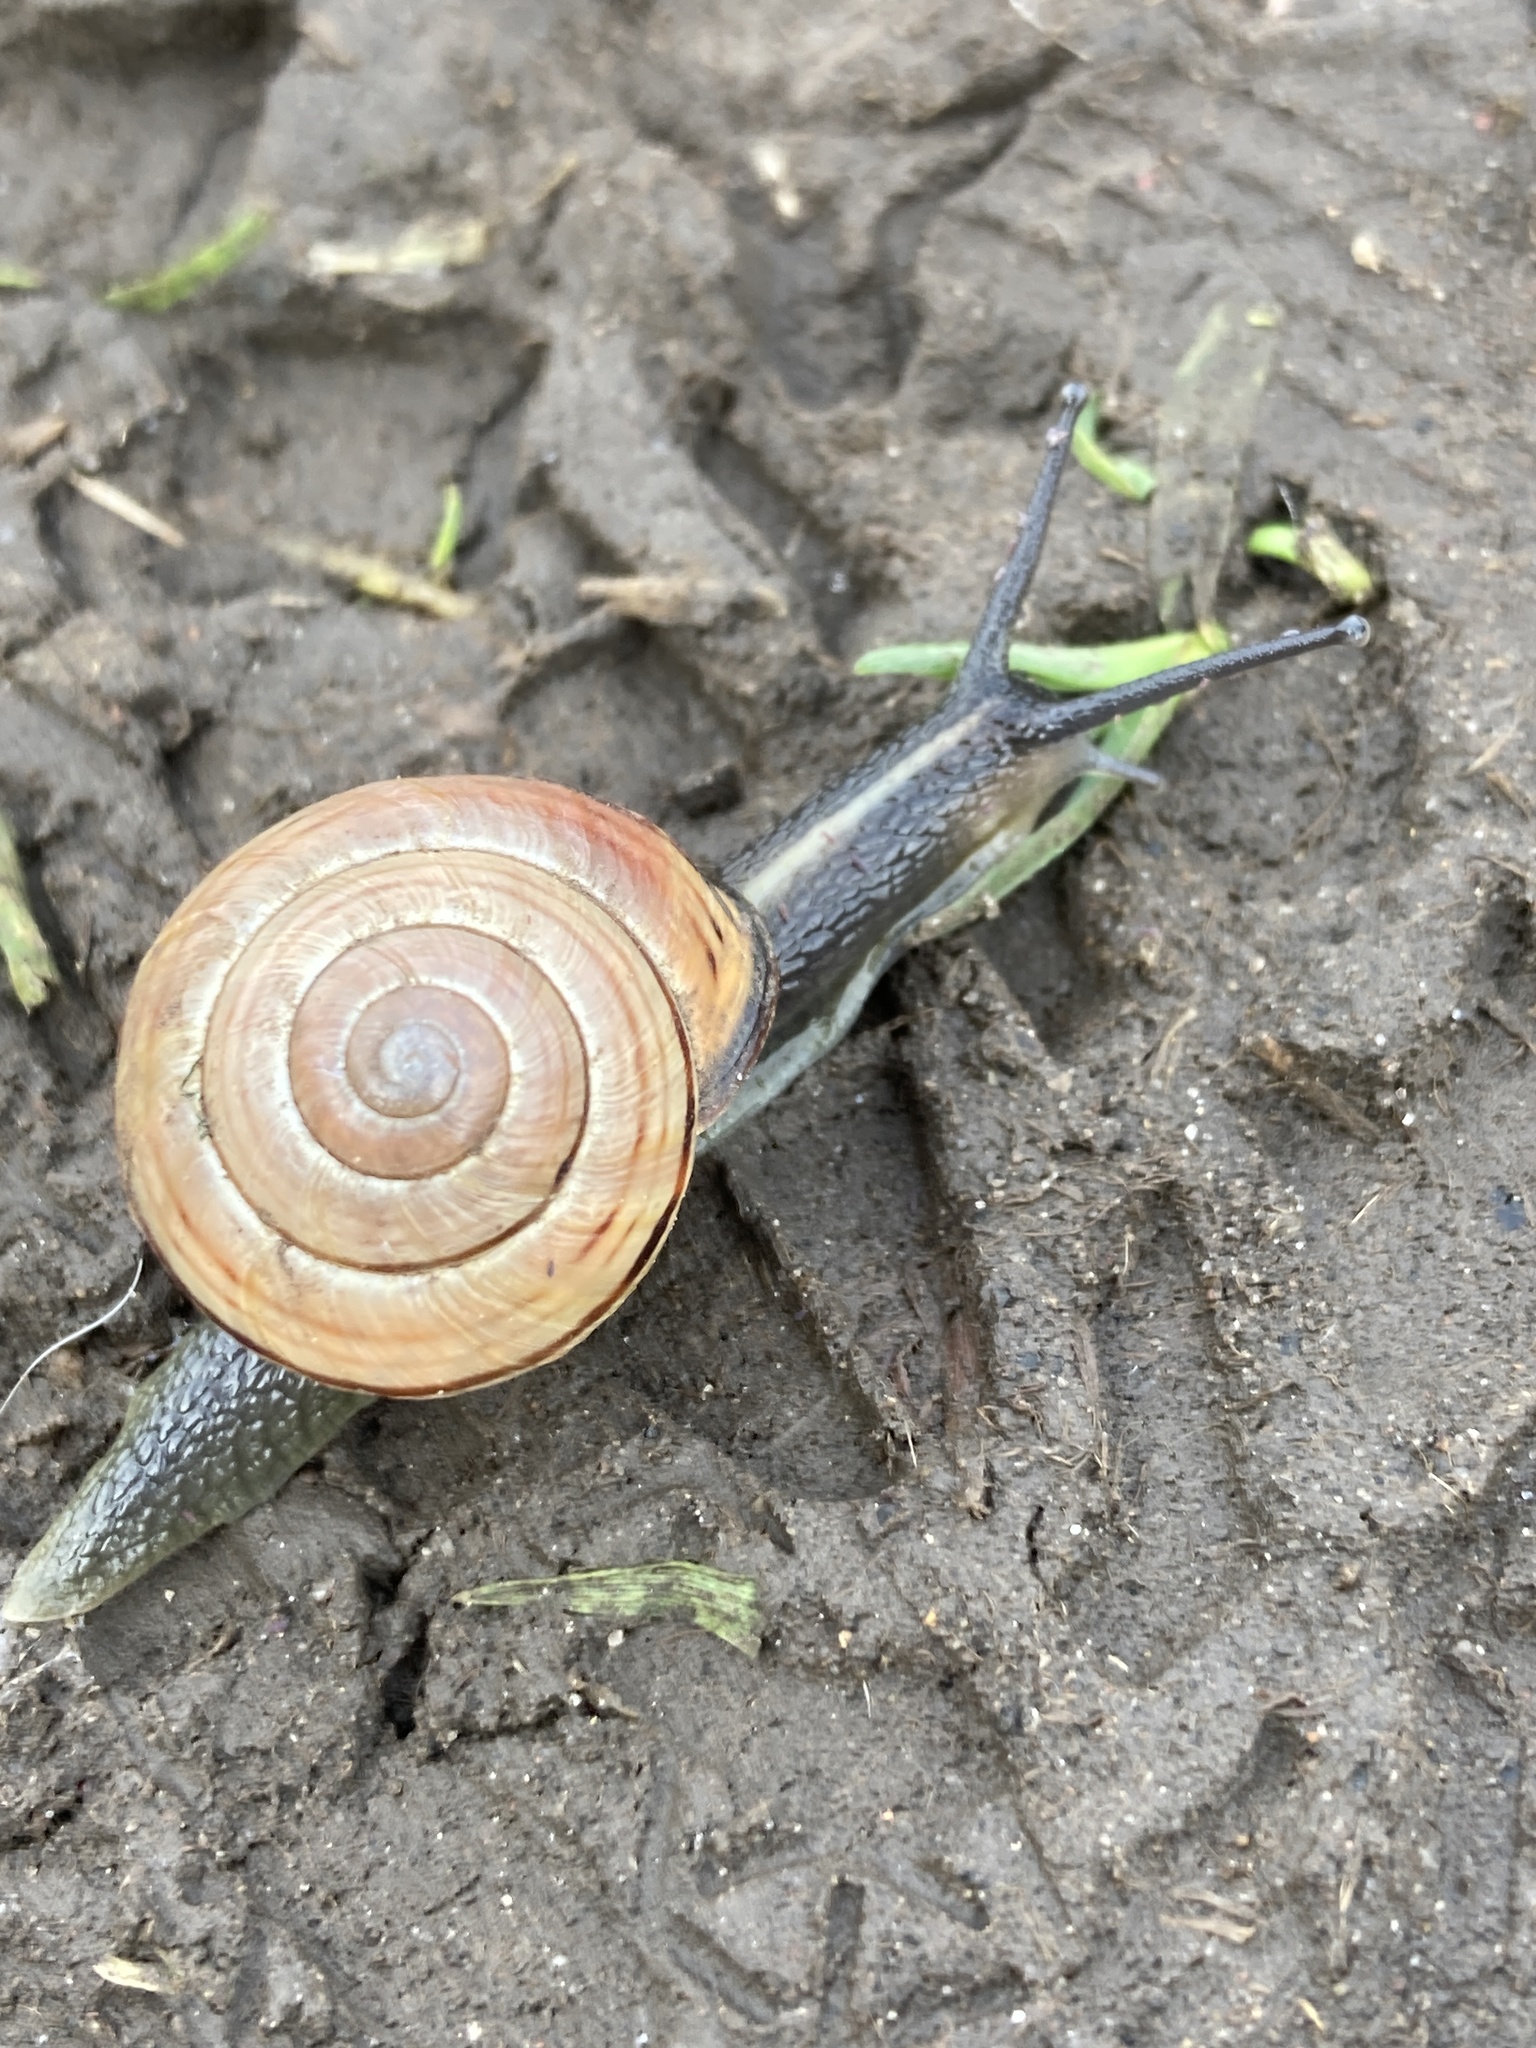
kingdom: Animalia
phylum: Mollusca
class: Gastropoda
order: Stylommatophora
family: Helicidae
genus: Cepaea
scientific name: Cepaea nemoralis
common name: Grovesnail
